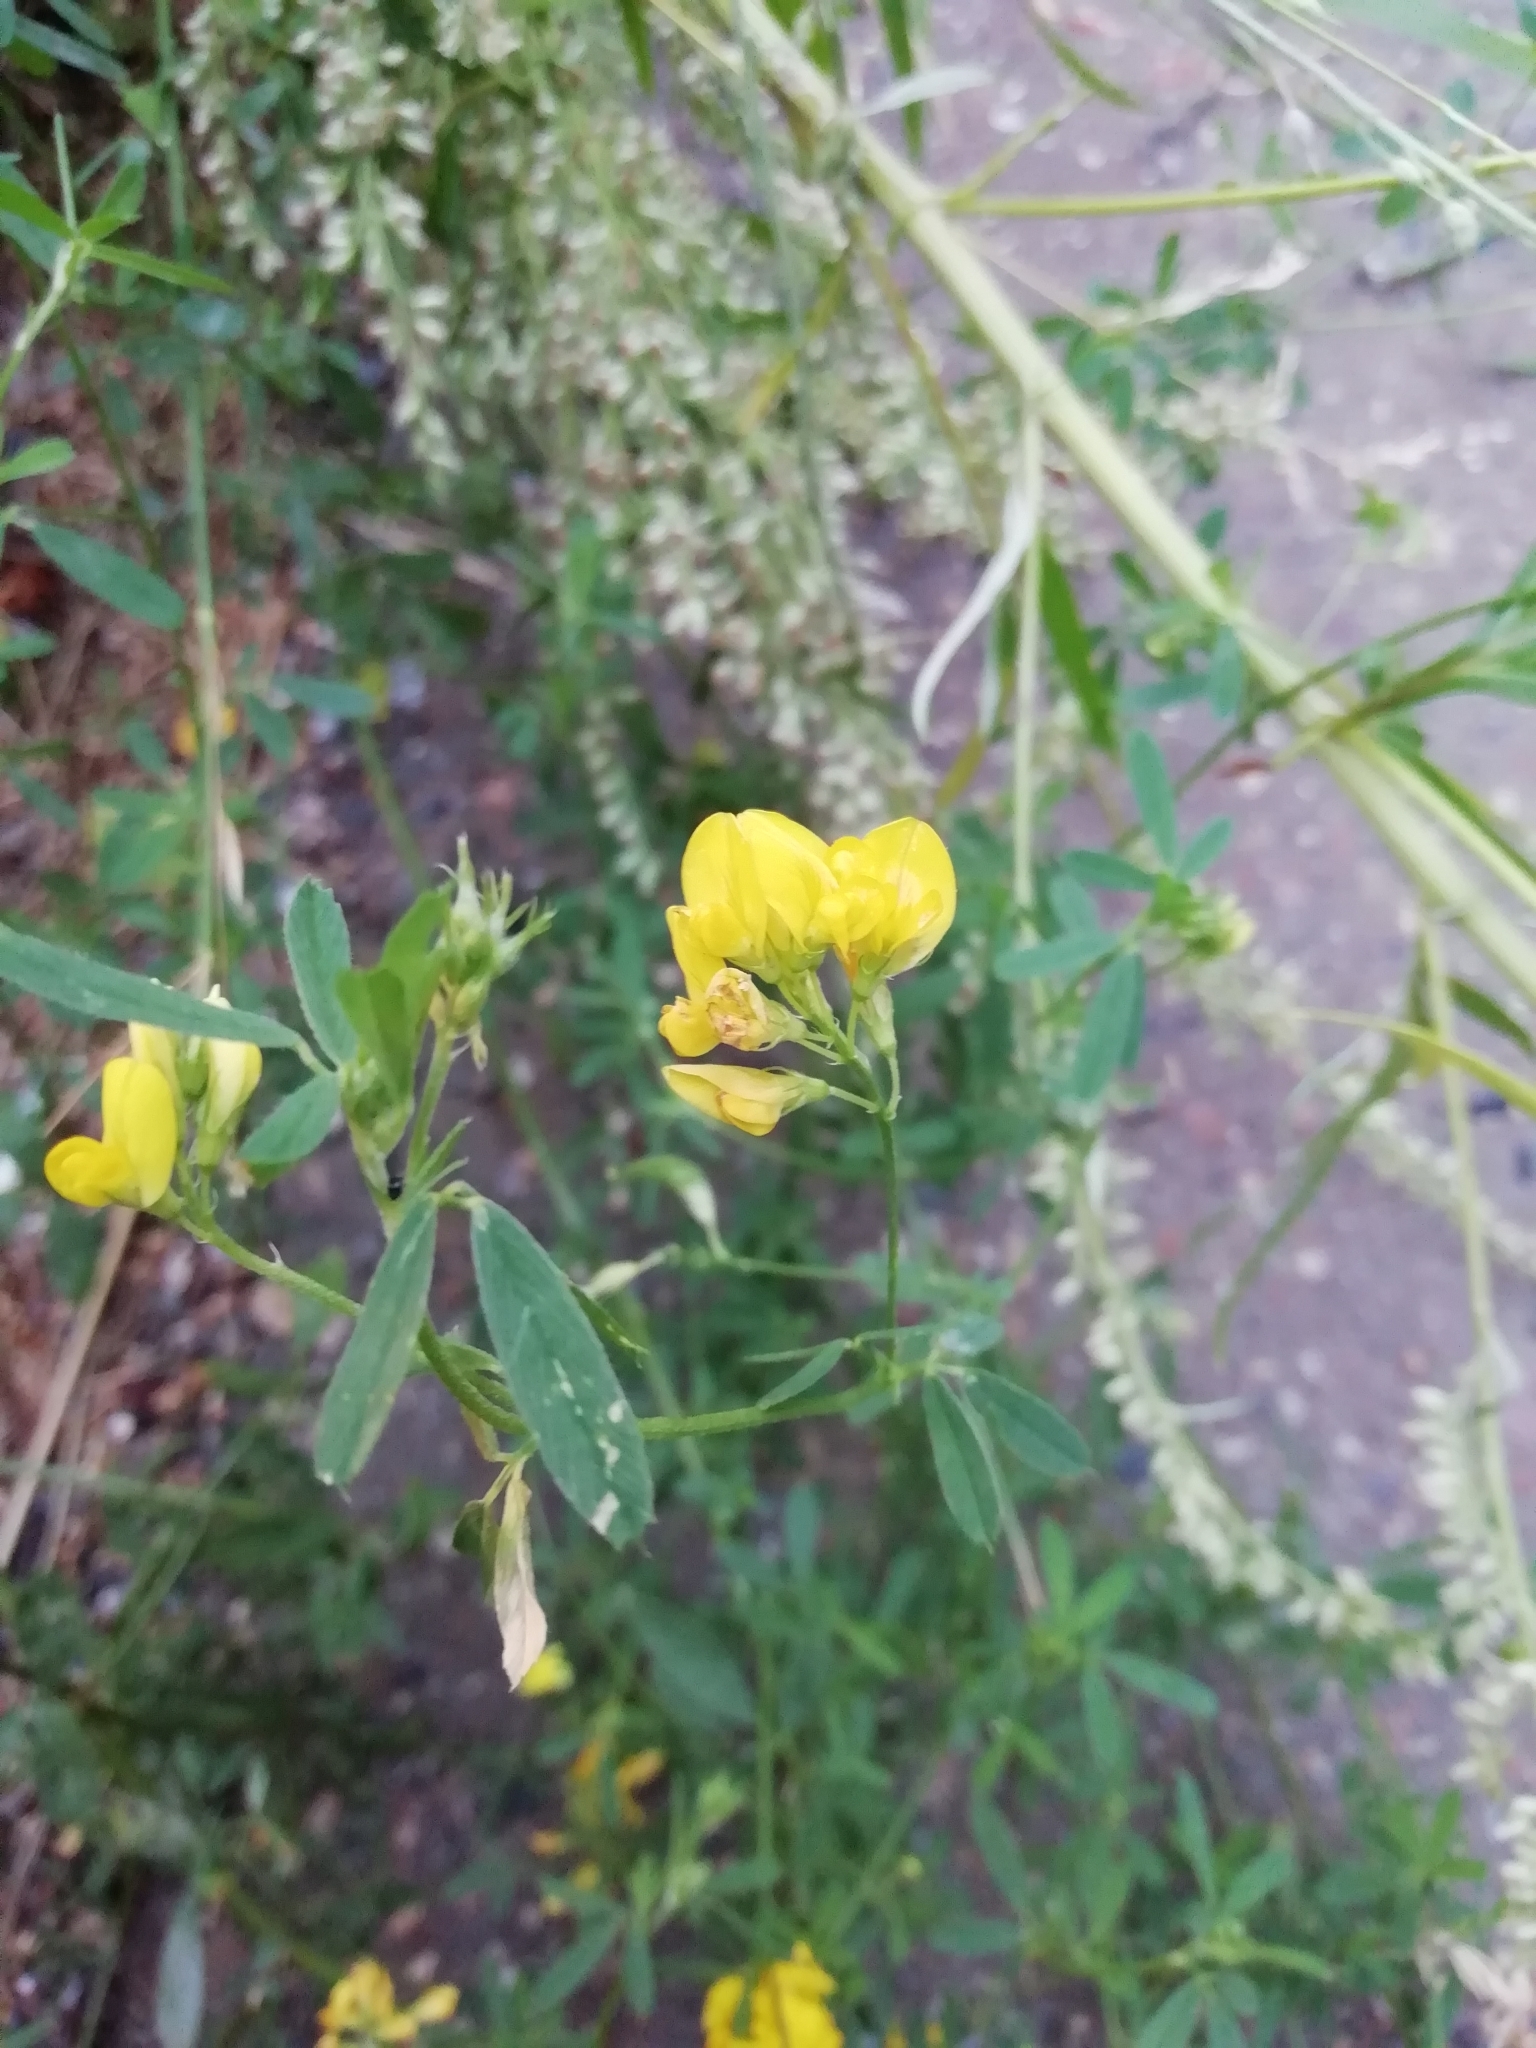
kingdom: Plantae
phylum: Tracheophyta
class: Magnoliopsida
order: Fabales
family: Fabaceae
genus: Medicago
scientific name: Medicago falcata
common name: Sickle medick
